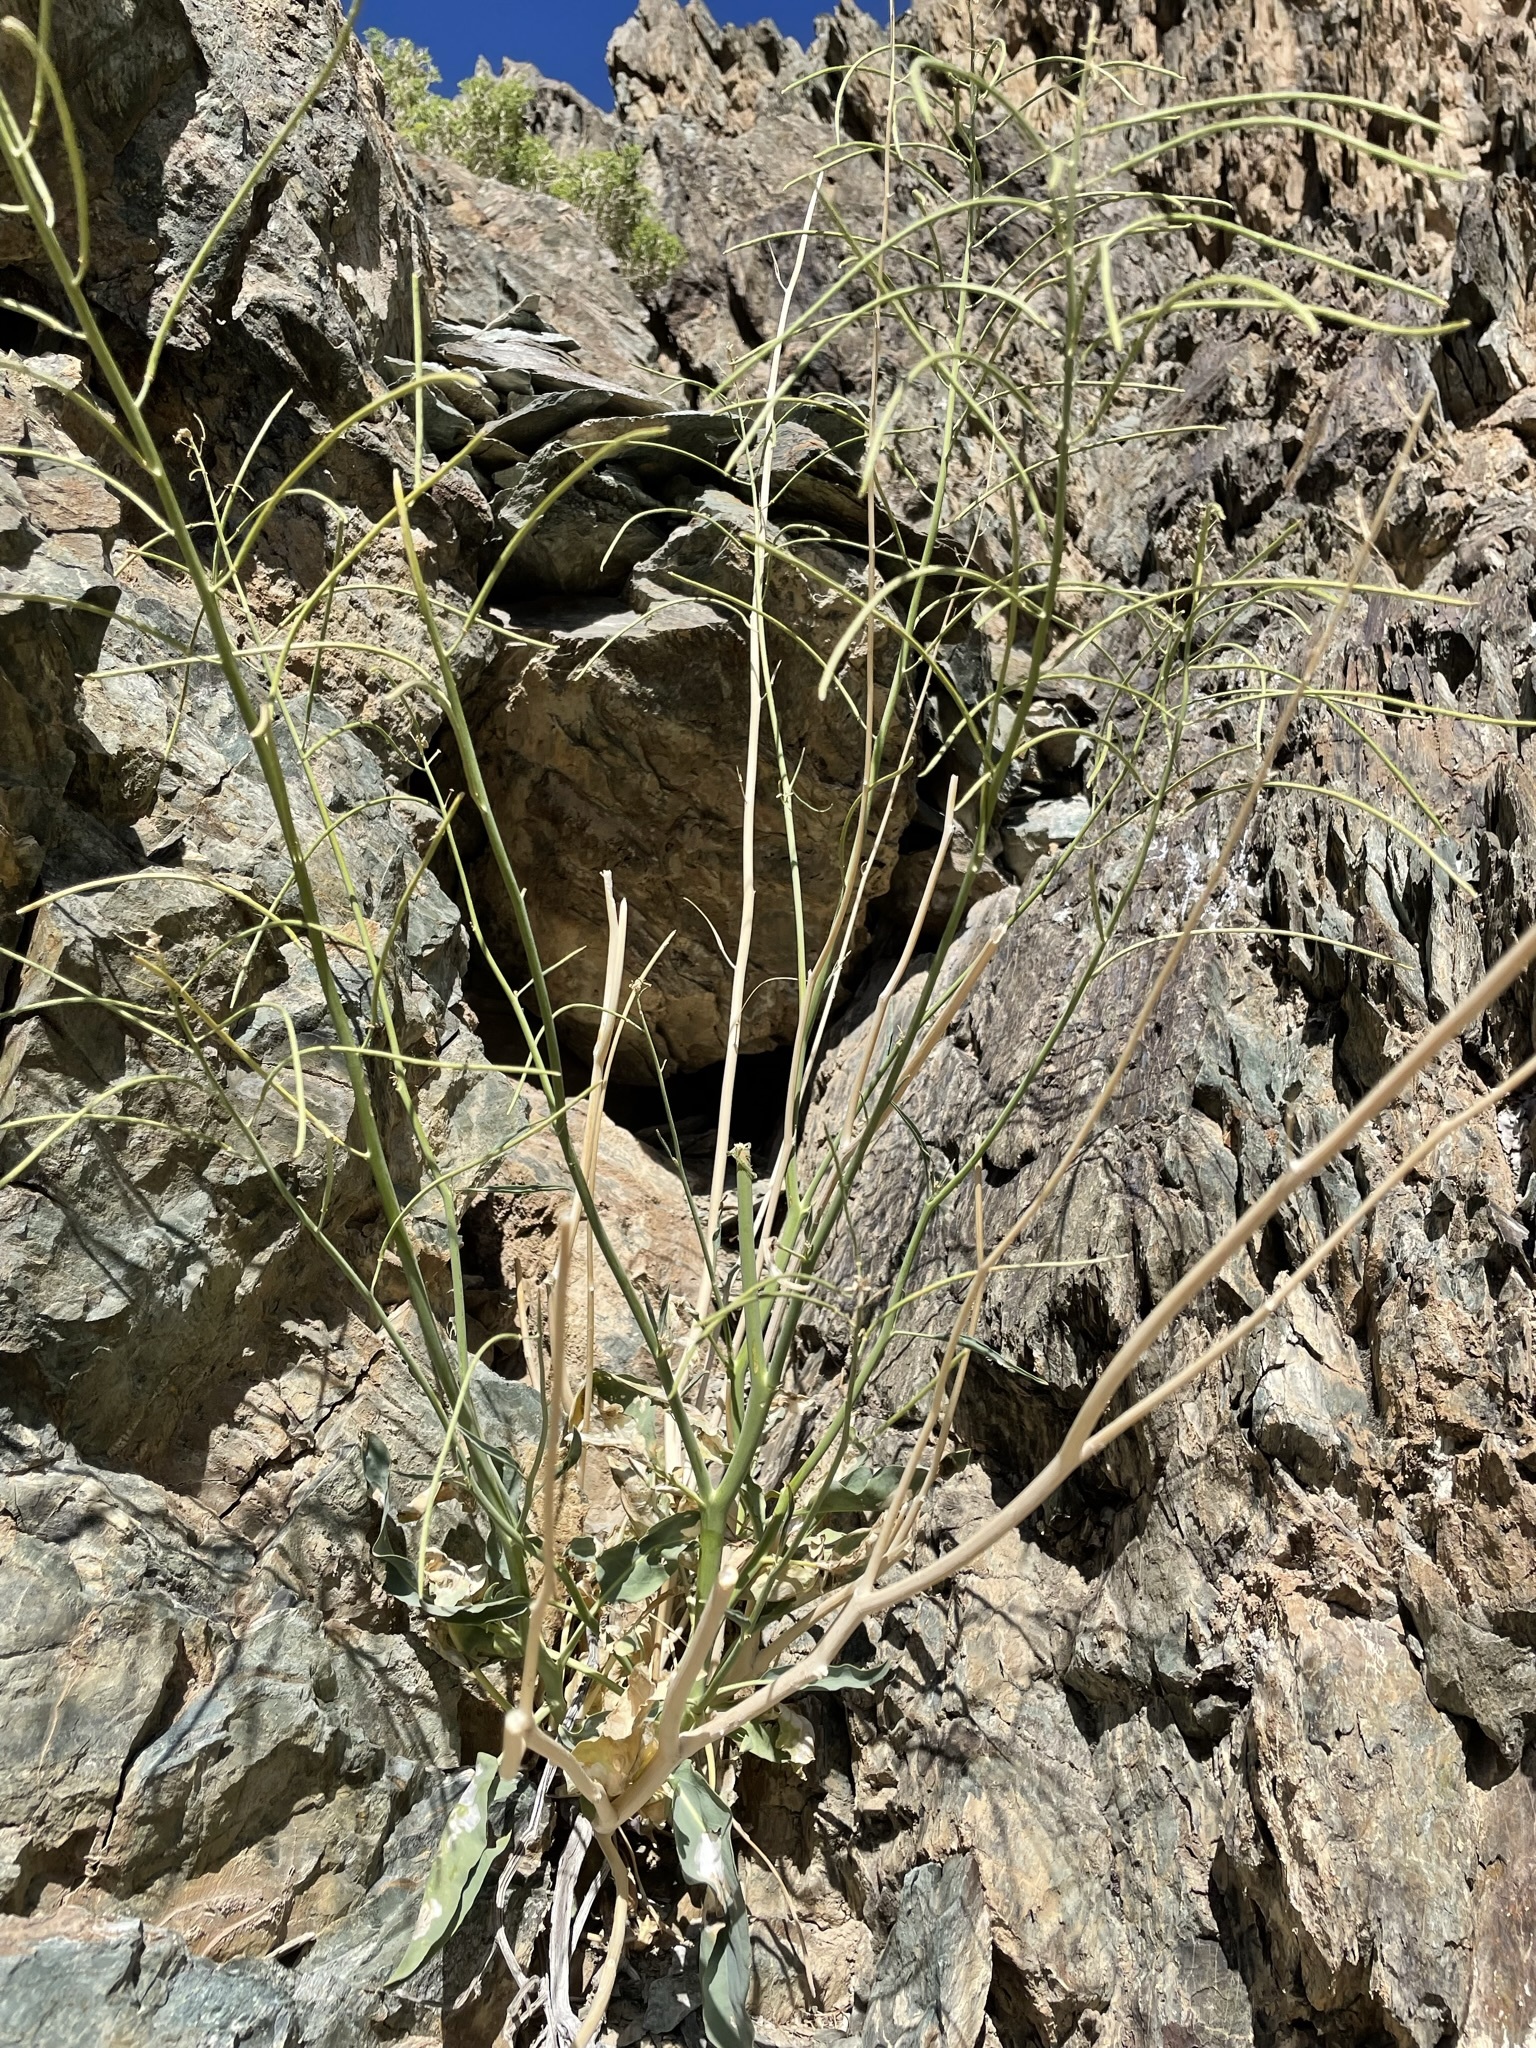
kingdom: Plantae
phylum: Tracheophyta
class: Magnoliopsida
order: Brassicales
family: Brassicaceae
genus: Streptanthus
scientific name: Streptanthus glaucus
